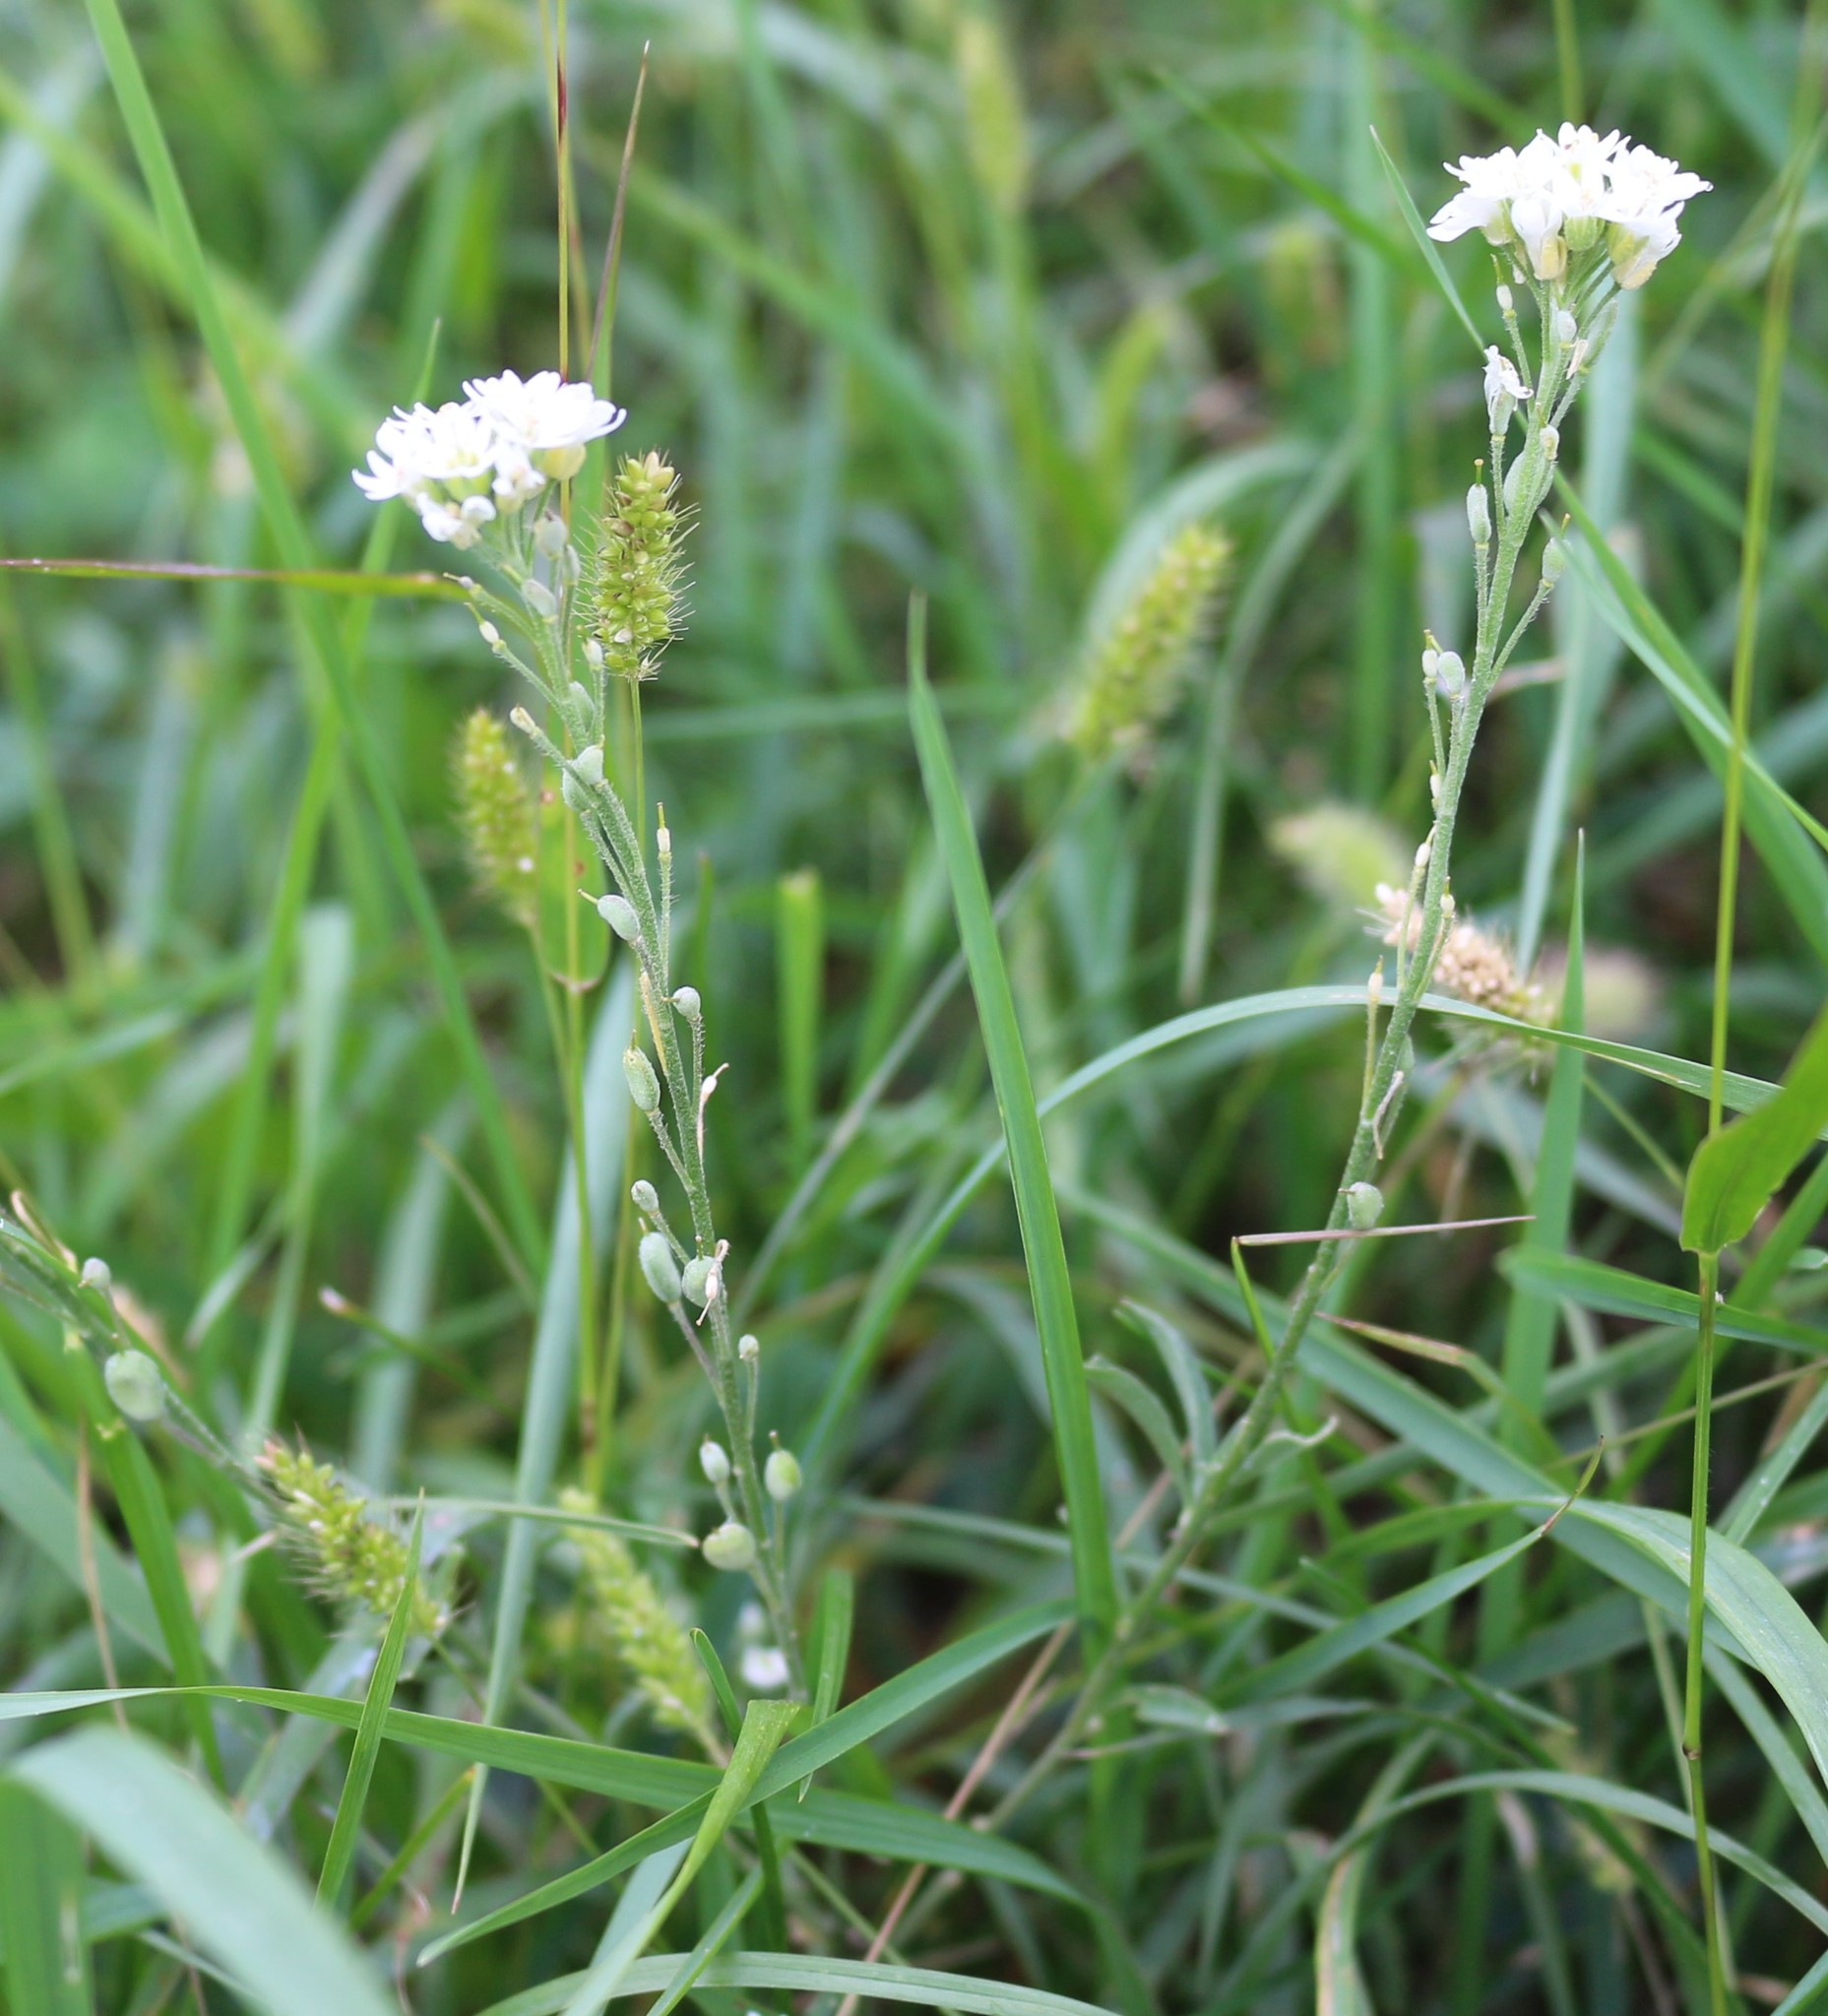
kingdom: Plantae
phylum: Tracheophyta
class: Magnoliopsida
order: Brassicales
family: Brassicaceae
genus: Berteroa
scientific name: Berteroa incana
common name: Hoary alison
